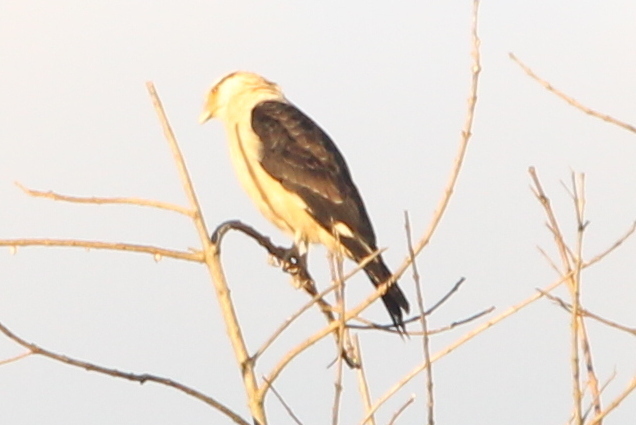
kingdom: Animalia
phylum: Chordata
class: Aves
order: Falconiformes
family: Falconidae
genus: Daptrius
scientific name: Daptrius
